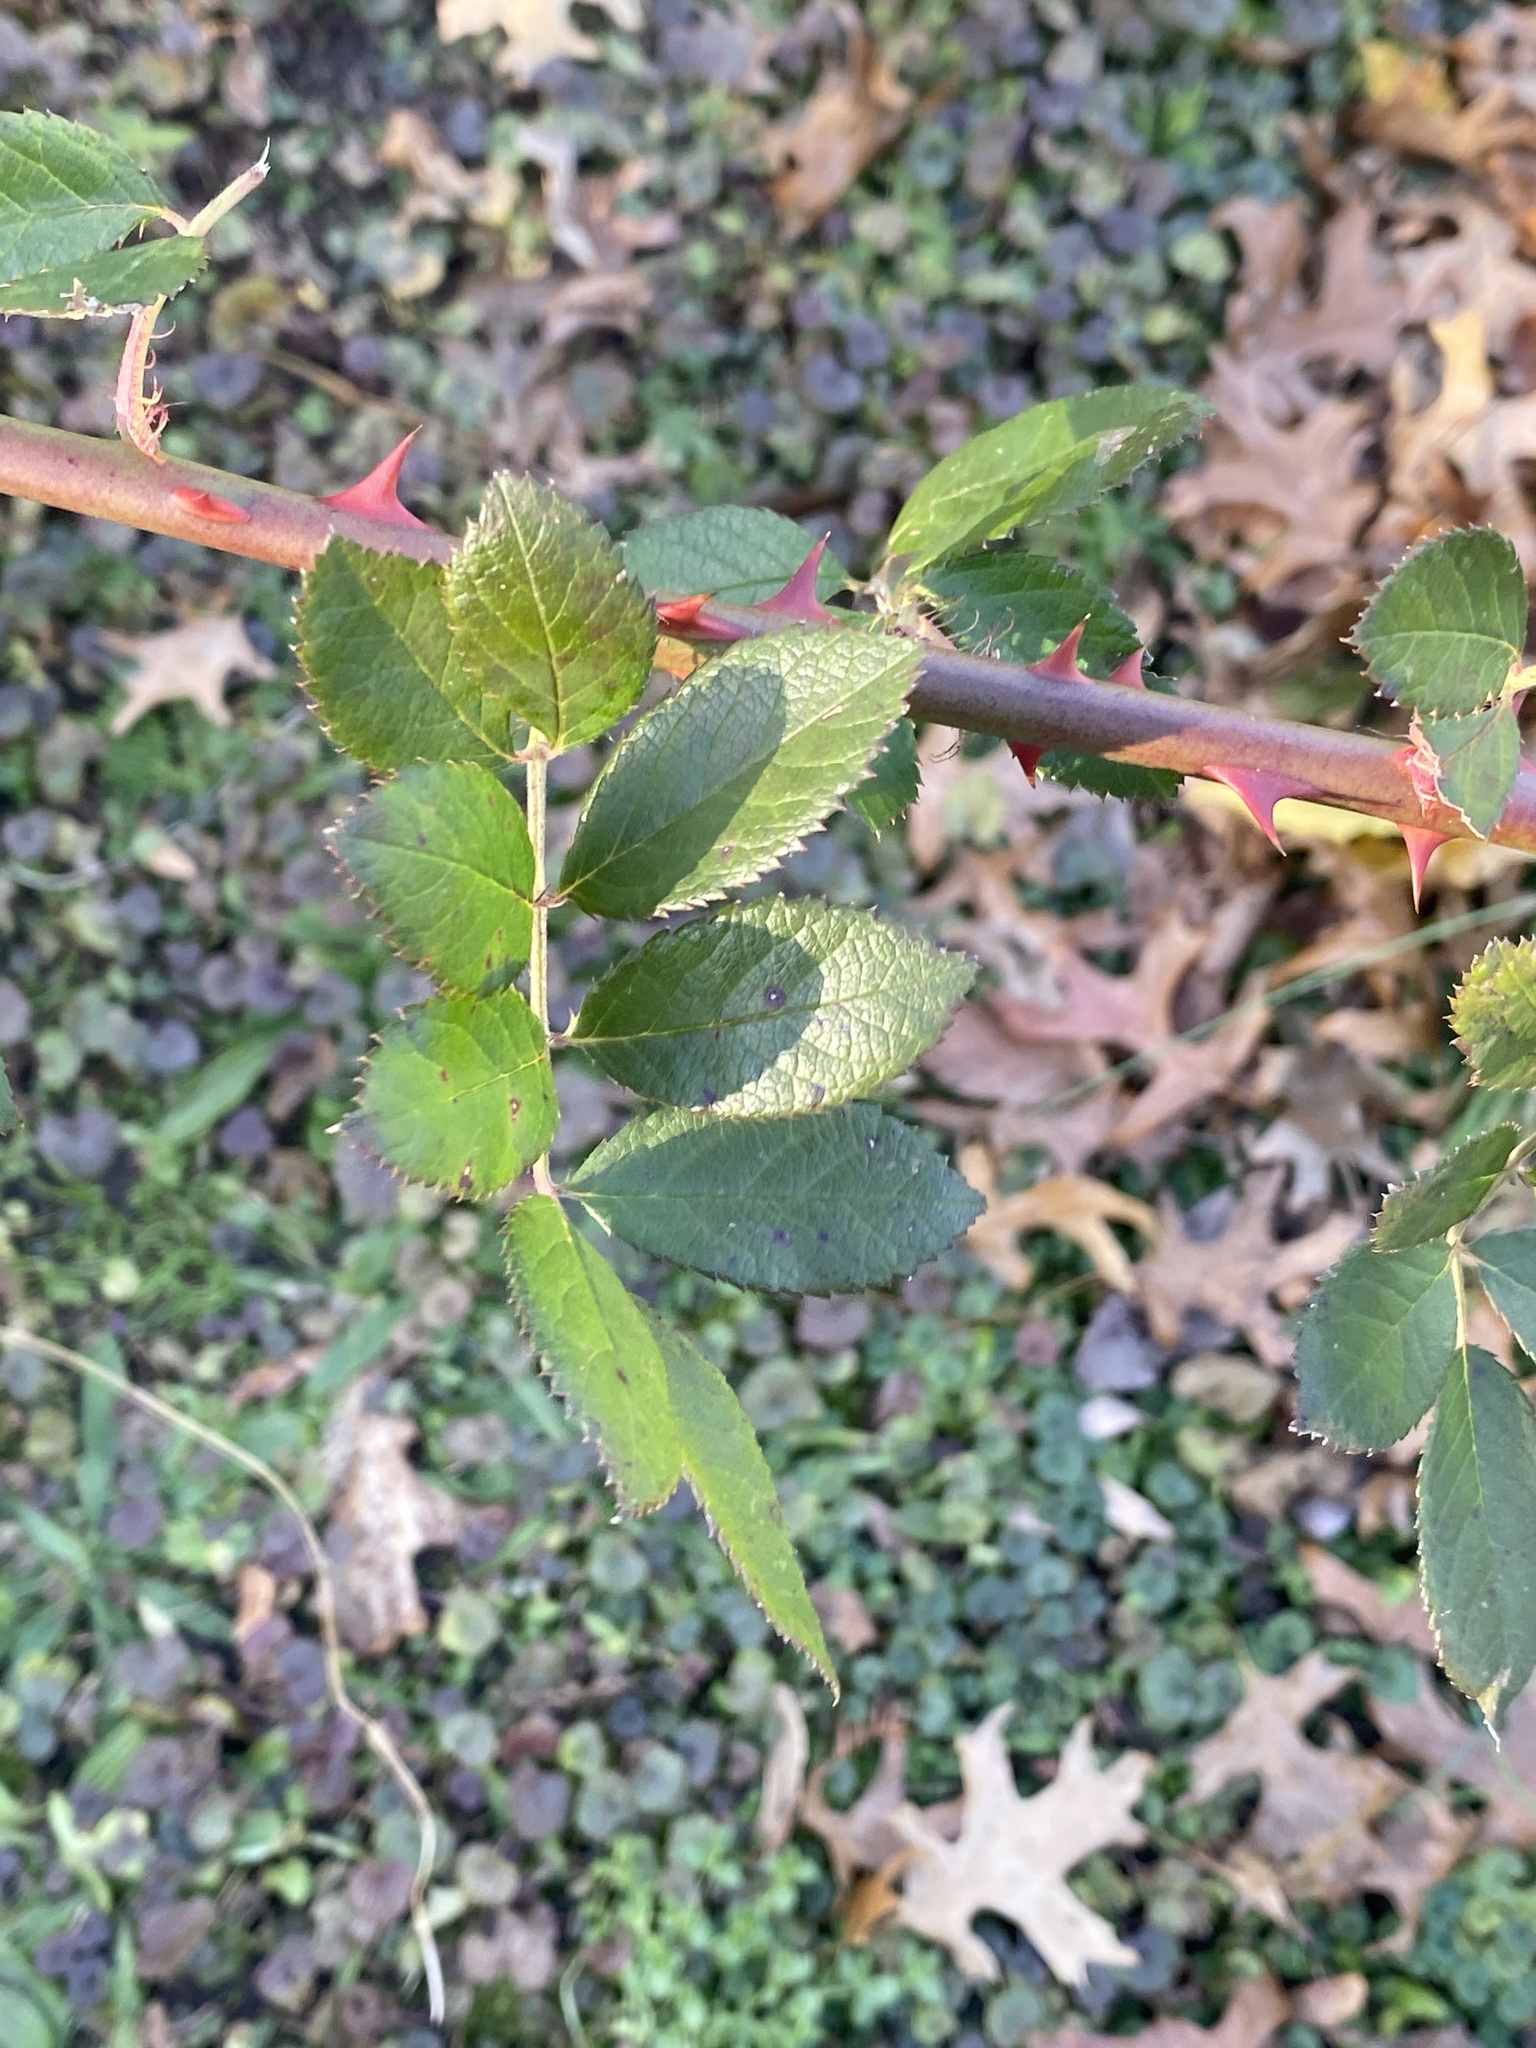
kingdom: Plantae
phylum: Tracheophyta
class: Magnoliopsida
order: Rosales
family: Rosaceae
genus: Rosa
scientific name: Rosa multiflora
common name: Multiflora rose
